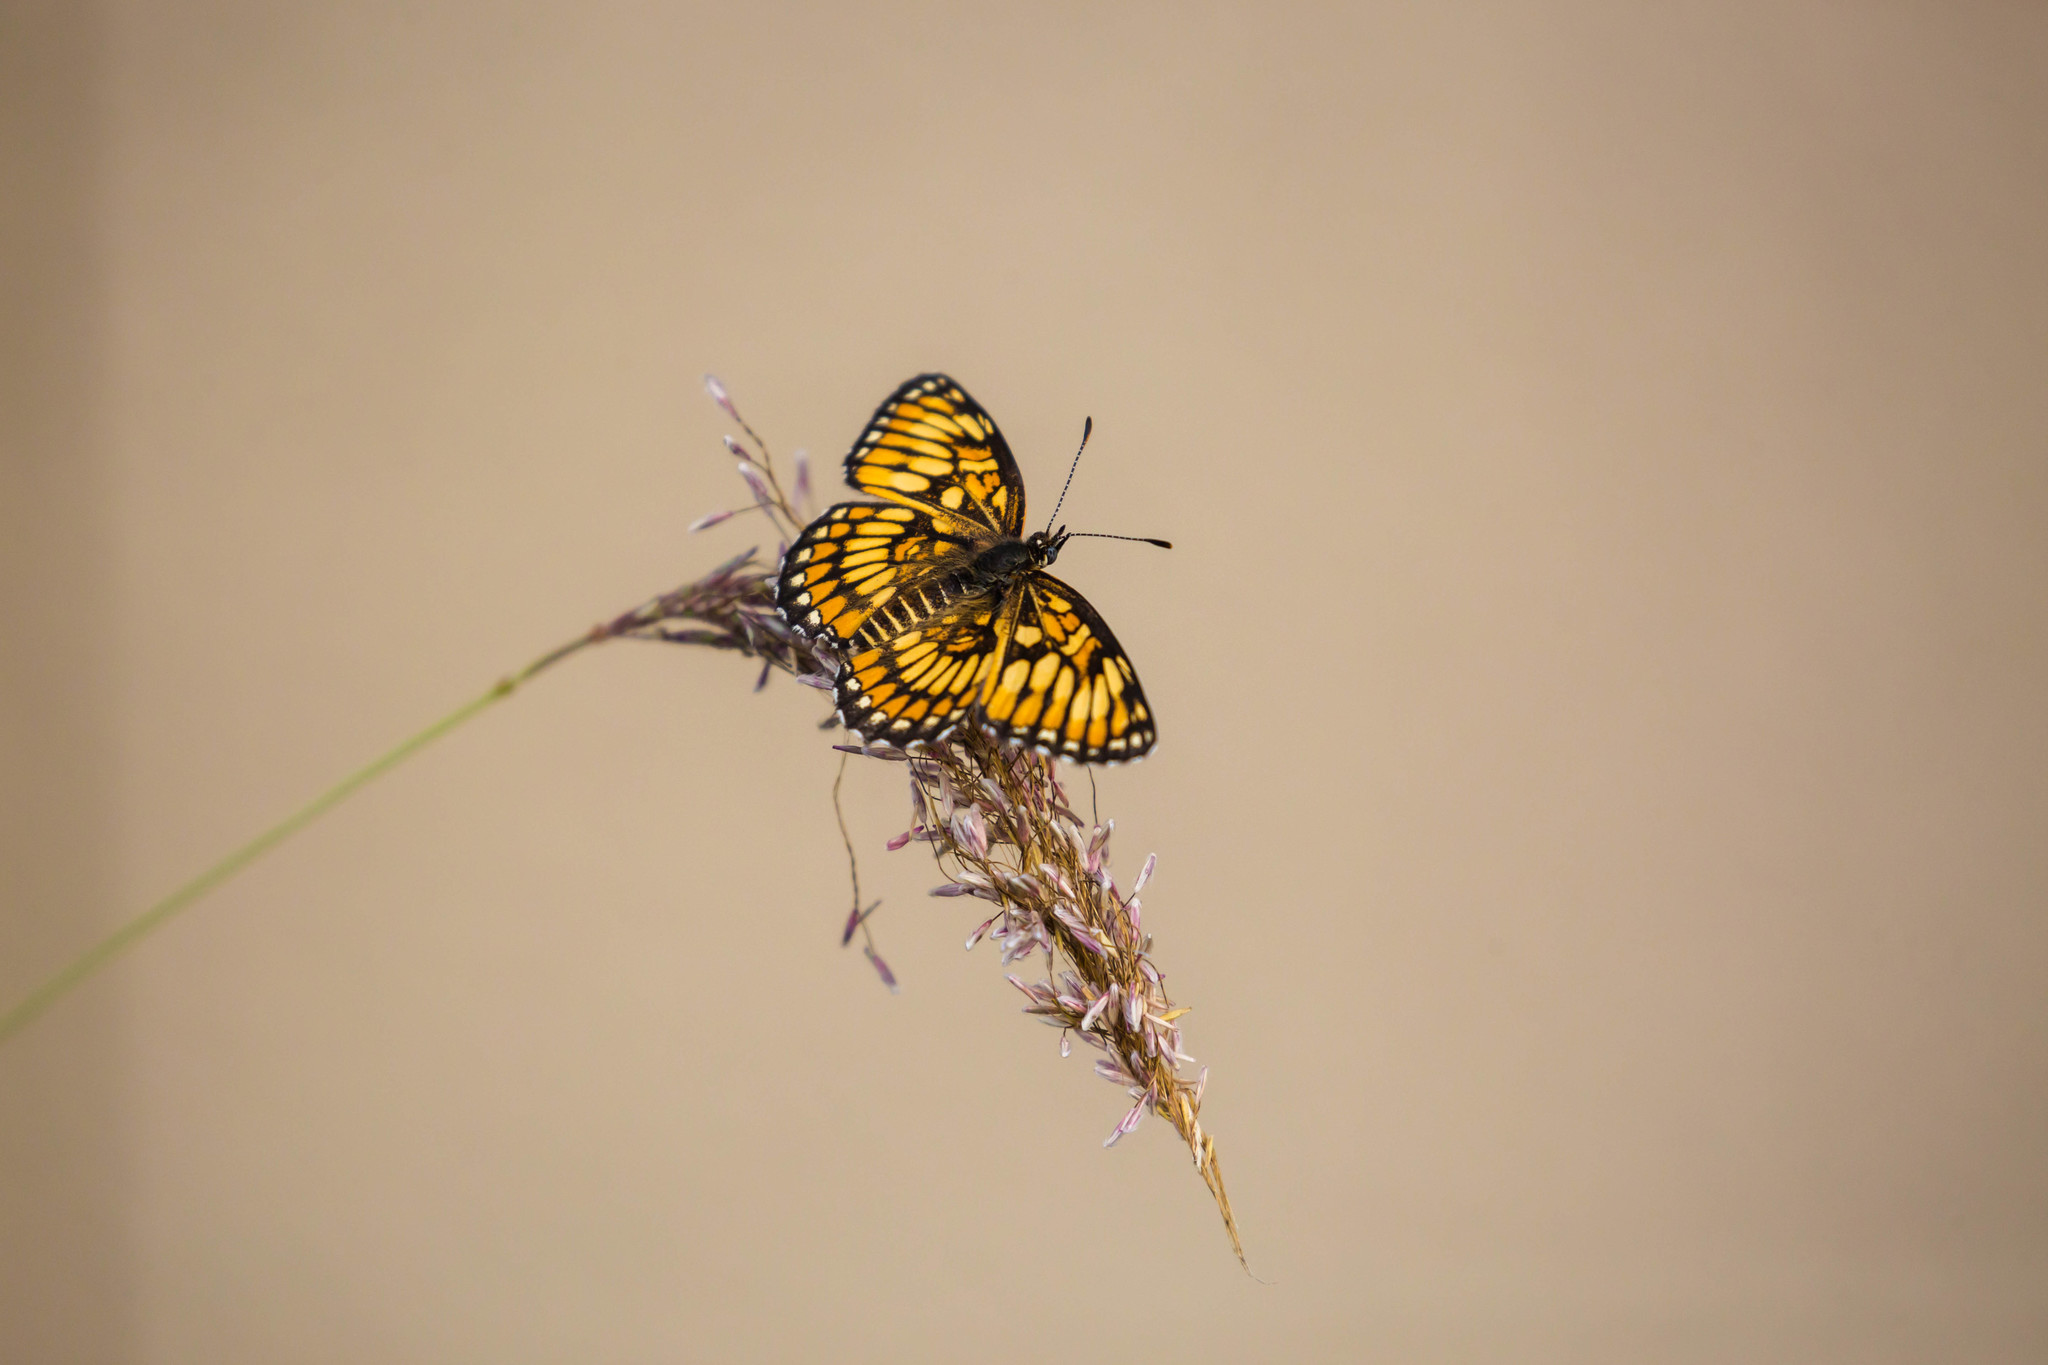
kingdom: Animalia
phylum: Arthropoda
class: Insecta
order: Lepidoptera
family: Nymphalidae
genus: Thessalia
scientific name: Thessalia theona
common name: Nymphalid moth
